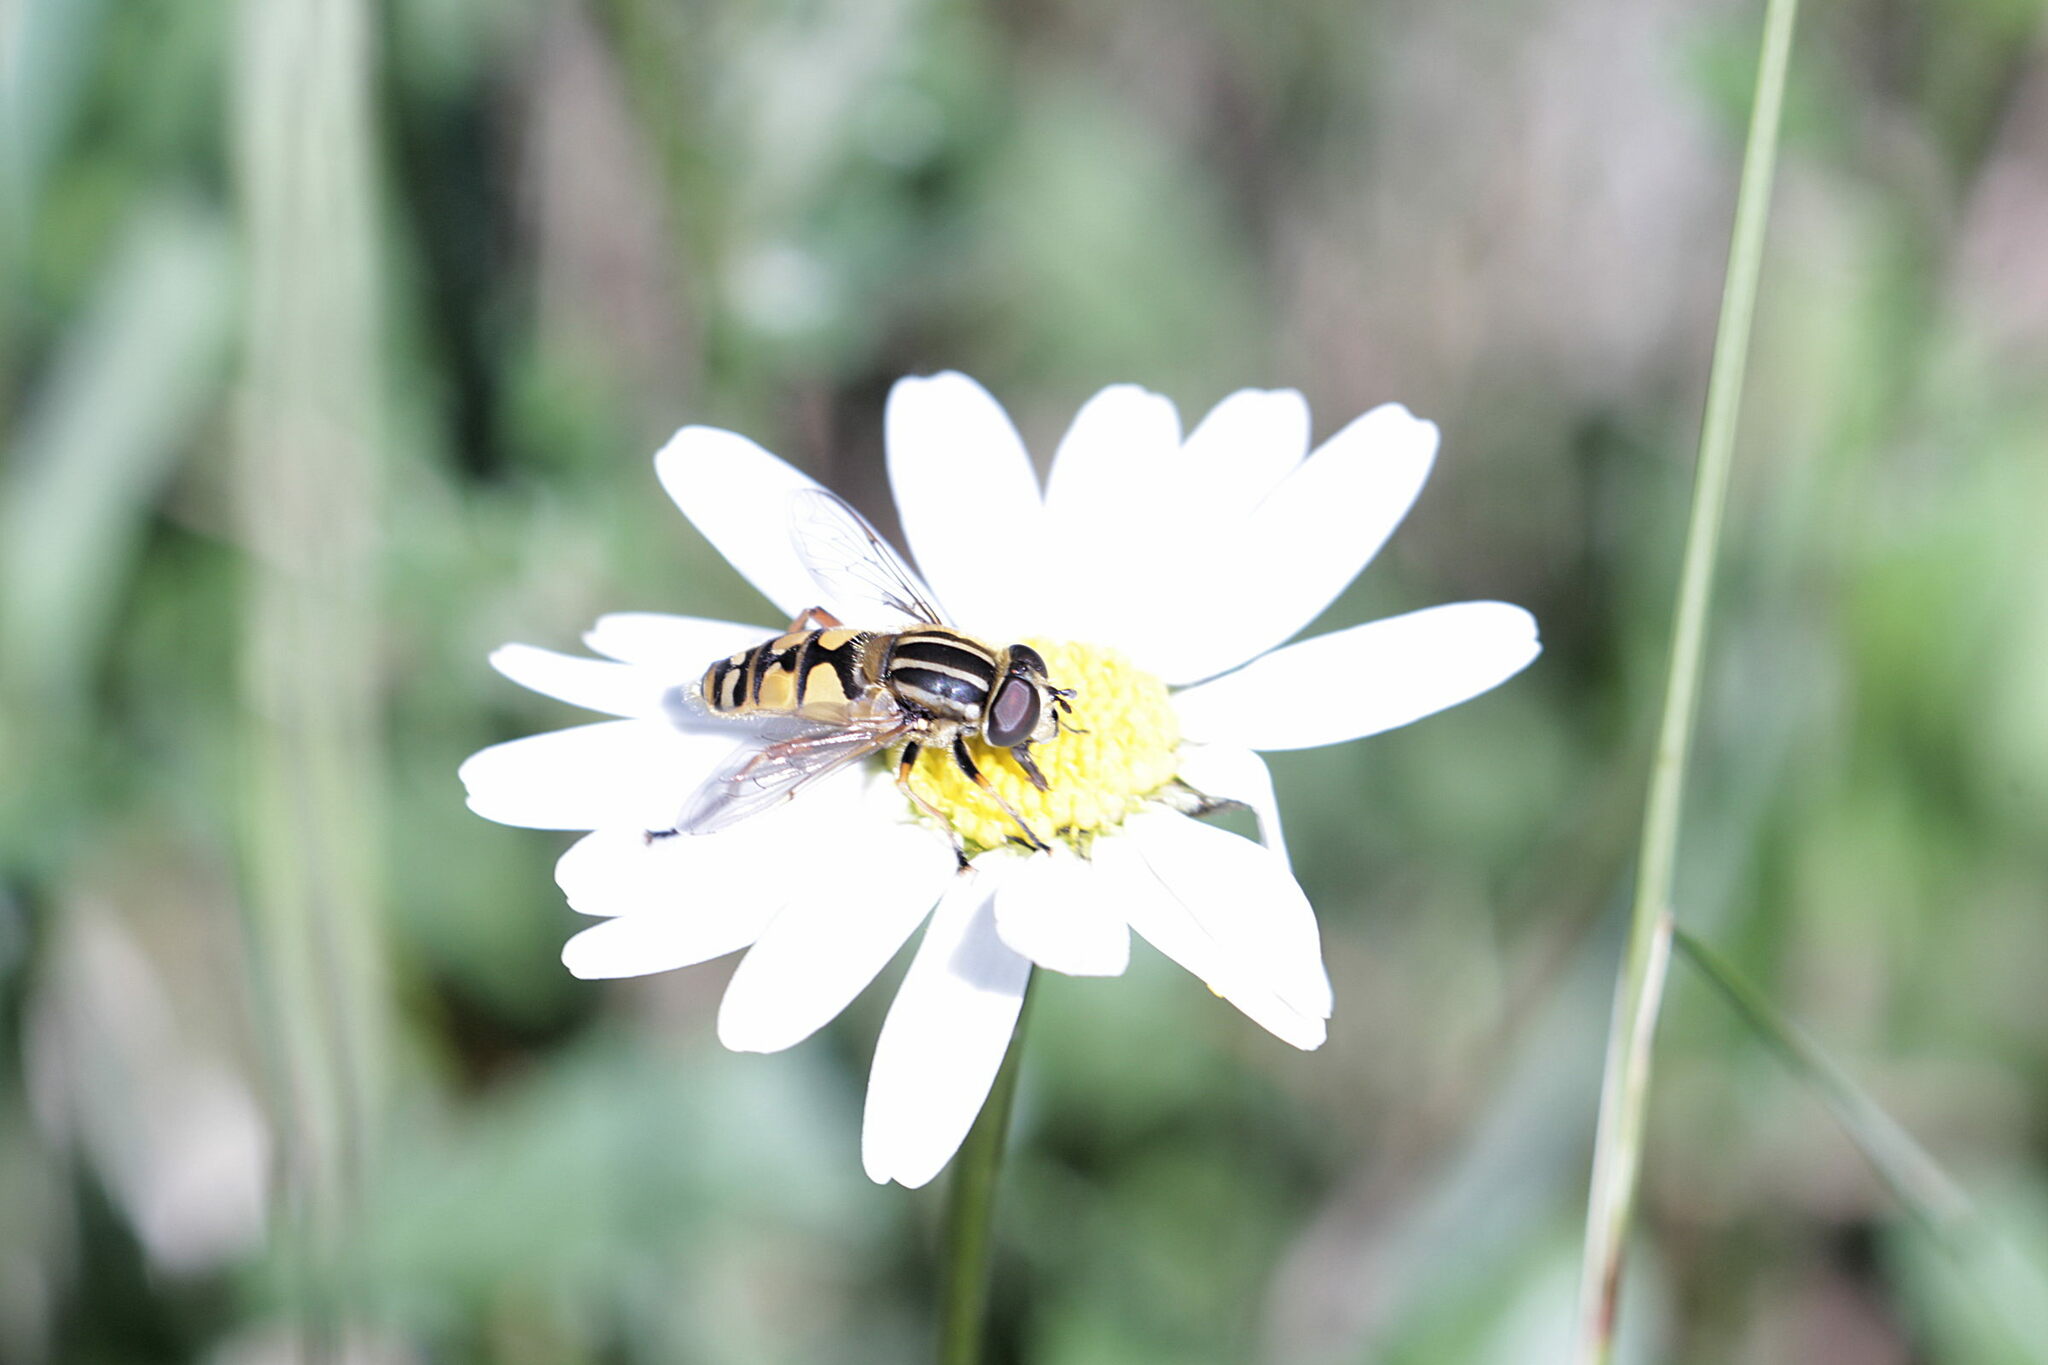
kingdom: Animalia
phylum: Arthropoda
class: Insecta
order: Diptera
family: Syrphidae
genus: Helophilus
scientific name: Helophilus pendulus
